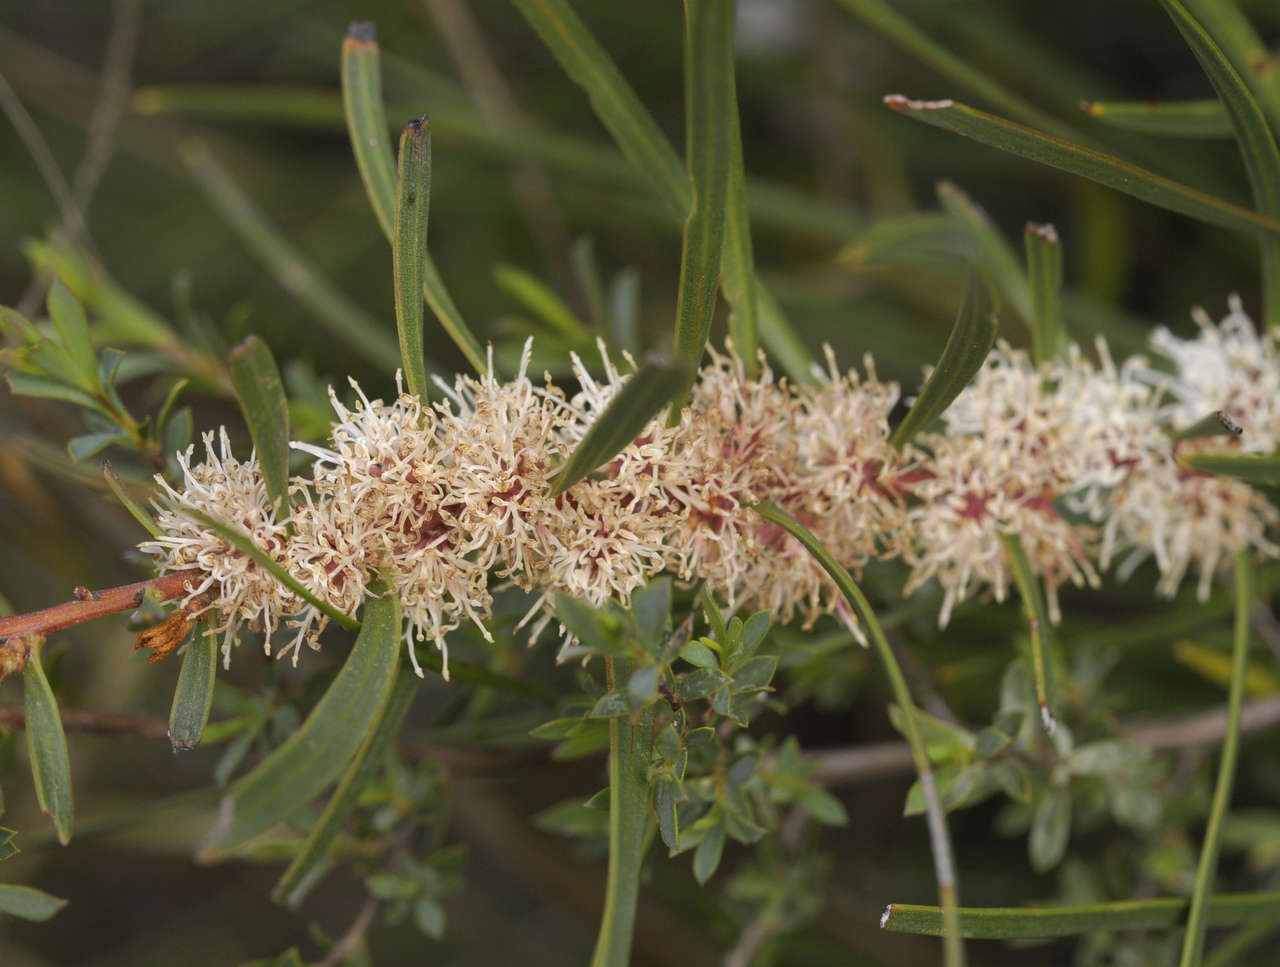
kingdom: Plantae
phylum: Tracheophyta
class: Magnoliopsida
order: Proteales
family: Proteaceae
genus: Hakea
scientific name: Hakea ulicina
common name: Furze hakea
